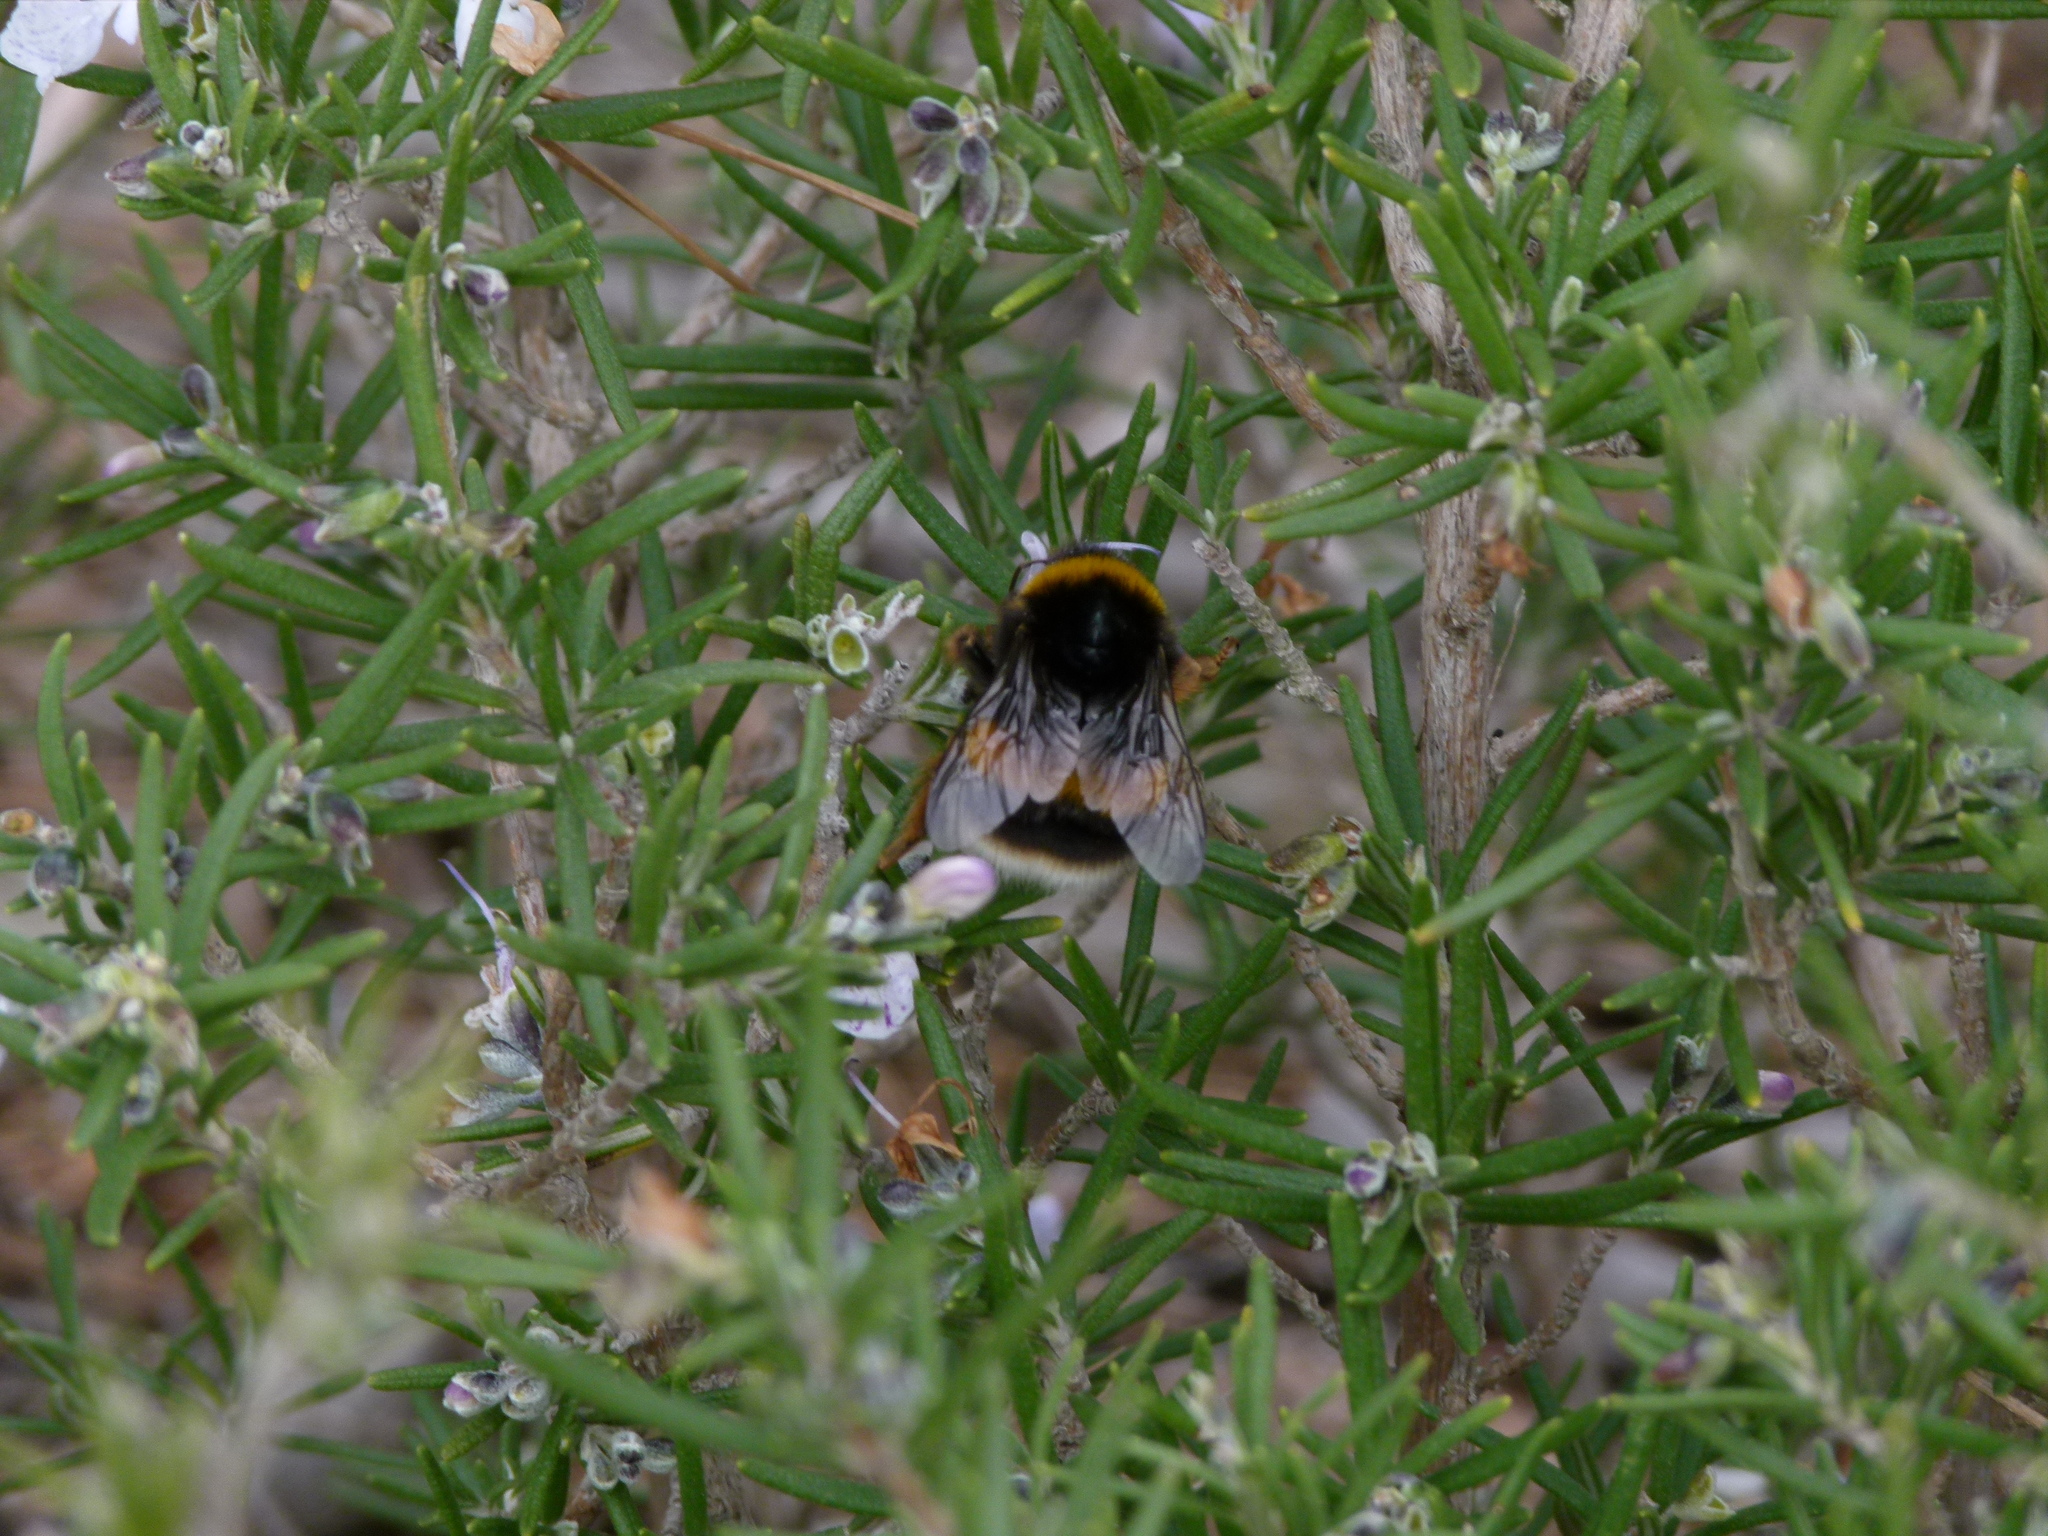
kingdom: Animalia
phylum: Arthropoda
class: Insecta
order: Hymenoptera
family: Apidae
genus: Bombus
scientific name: Bombus terrestris
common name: Buff-tailed bumblebee
